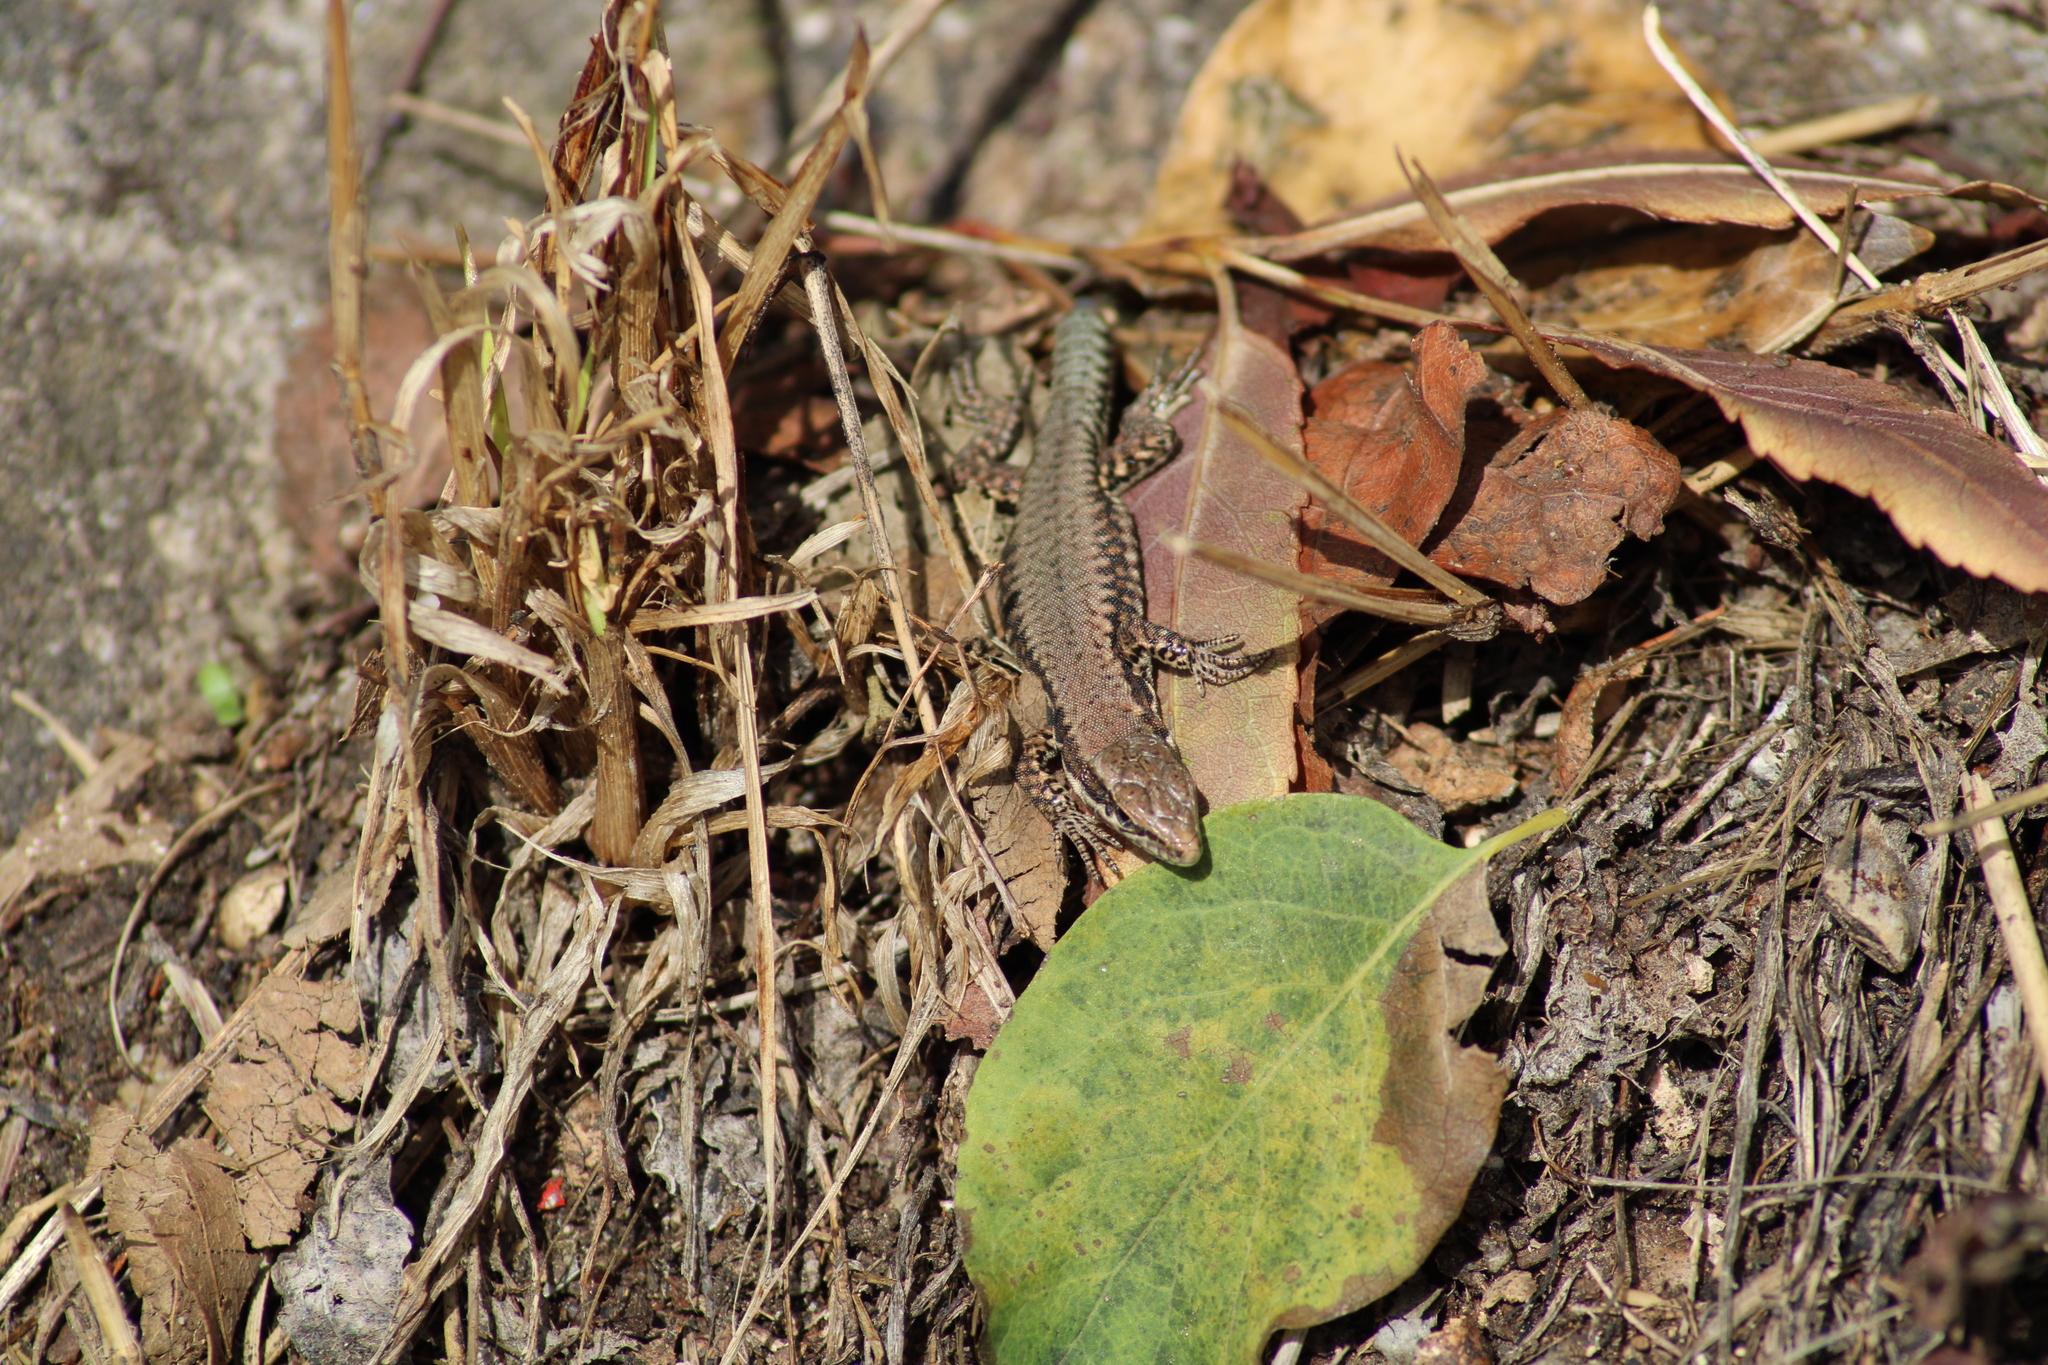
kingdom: Animalia
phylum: Chordata
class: Squamata
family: Lacertidae
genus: Podarcis
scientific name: Podarcis muralis
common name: Common wall lizard
